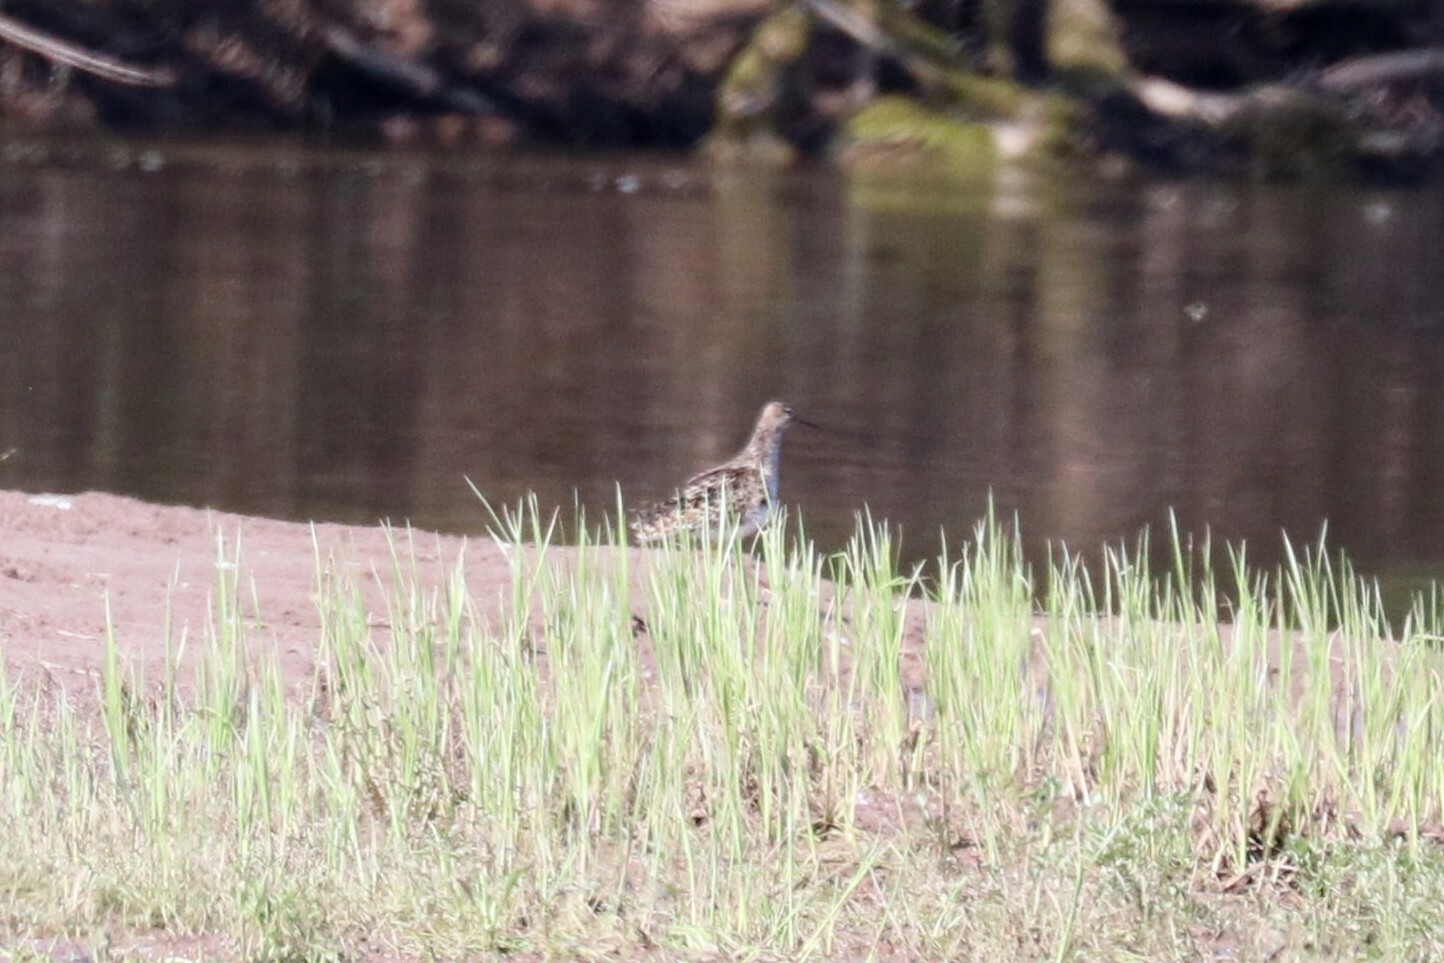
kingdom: Animalia
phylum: Chordata
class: Aves
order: Charadriiformes
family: Scolopacidae
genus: Calidris
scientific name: Calidris pugnax
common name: Ruff
